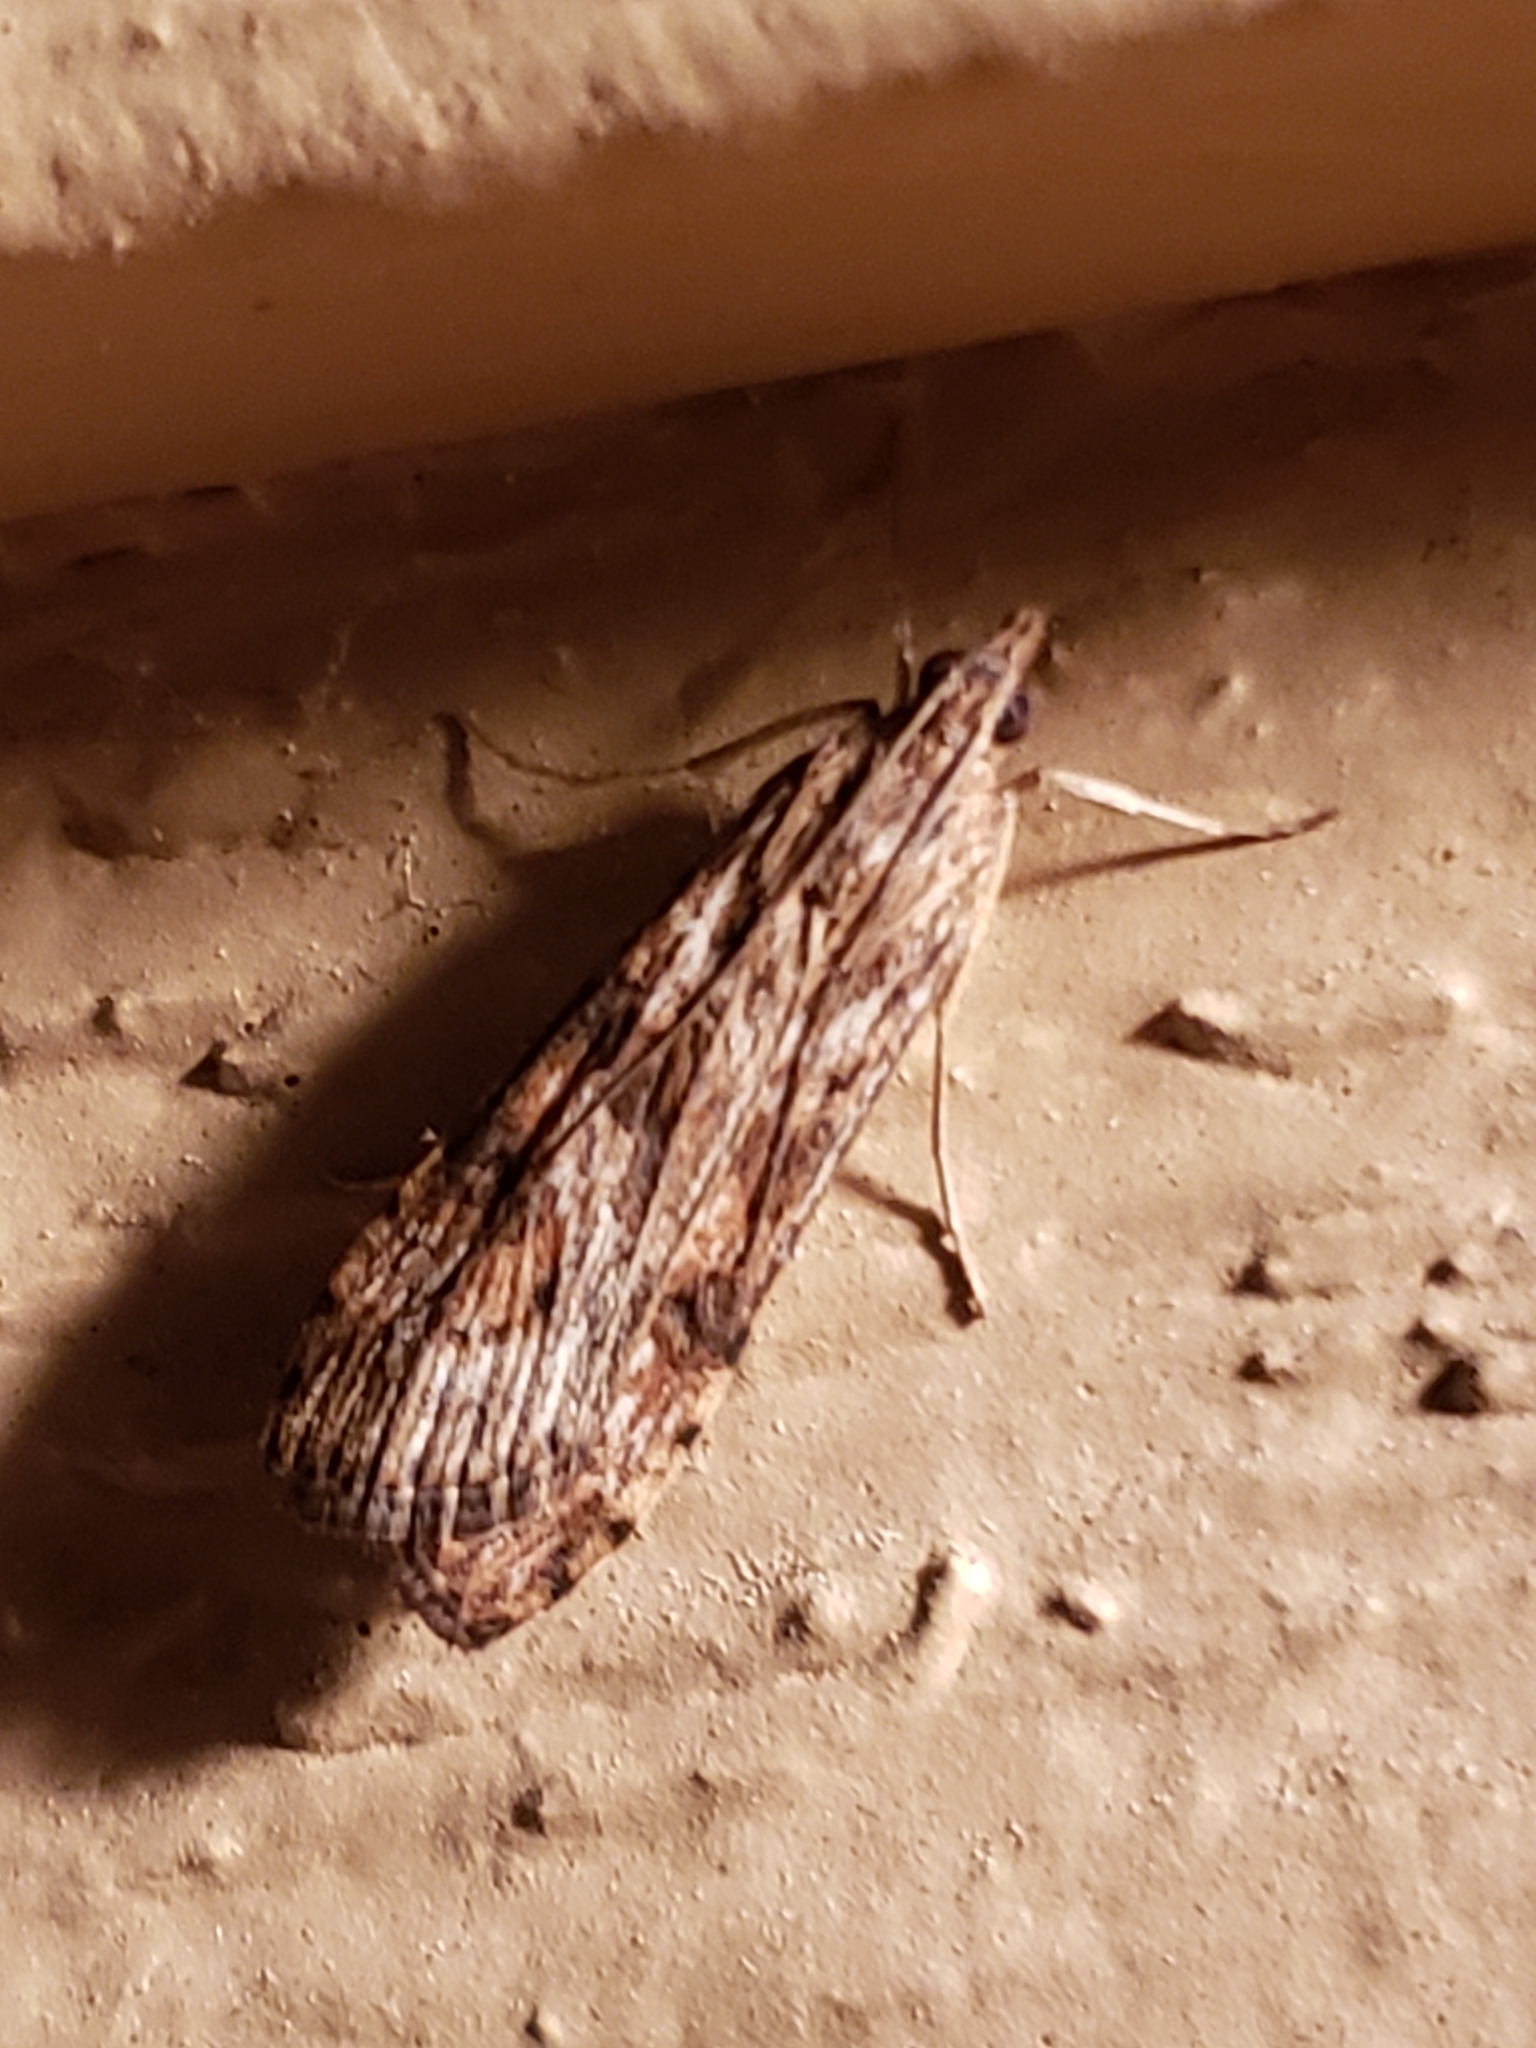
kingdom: Animalia
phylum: Arthropoda
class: Insecta
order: Lepidoptera
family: Crambidae
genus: Nomophila
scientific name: Nomophila nearctica
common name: American rush veneer
